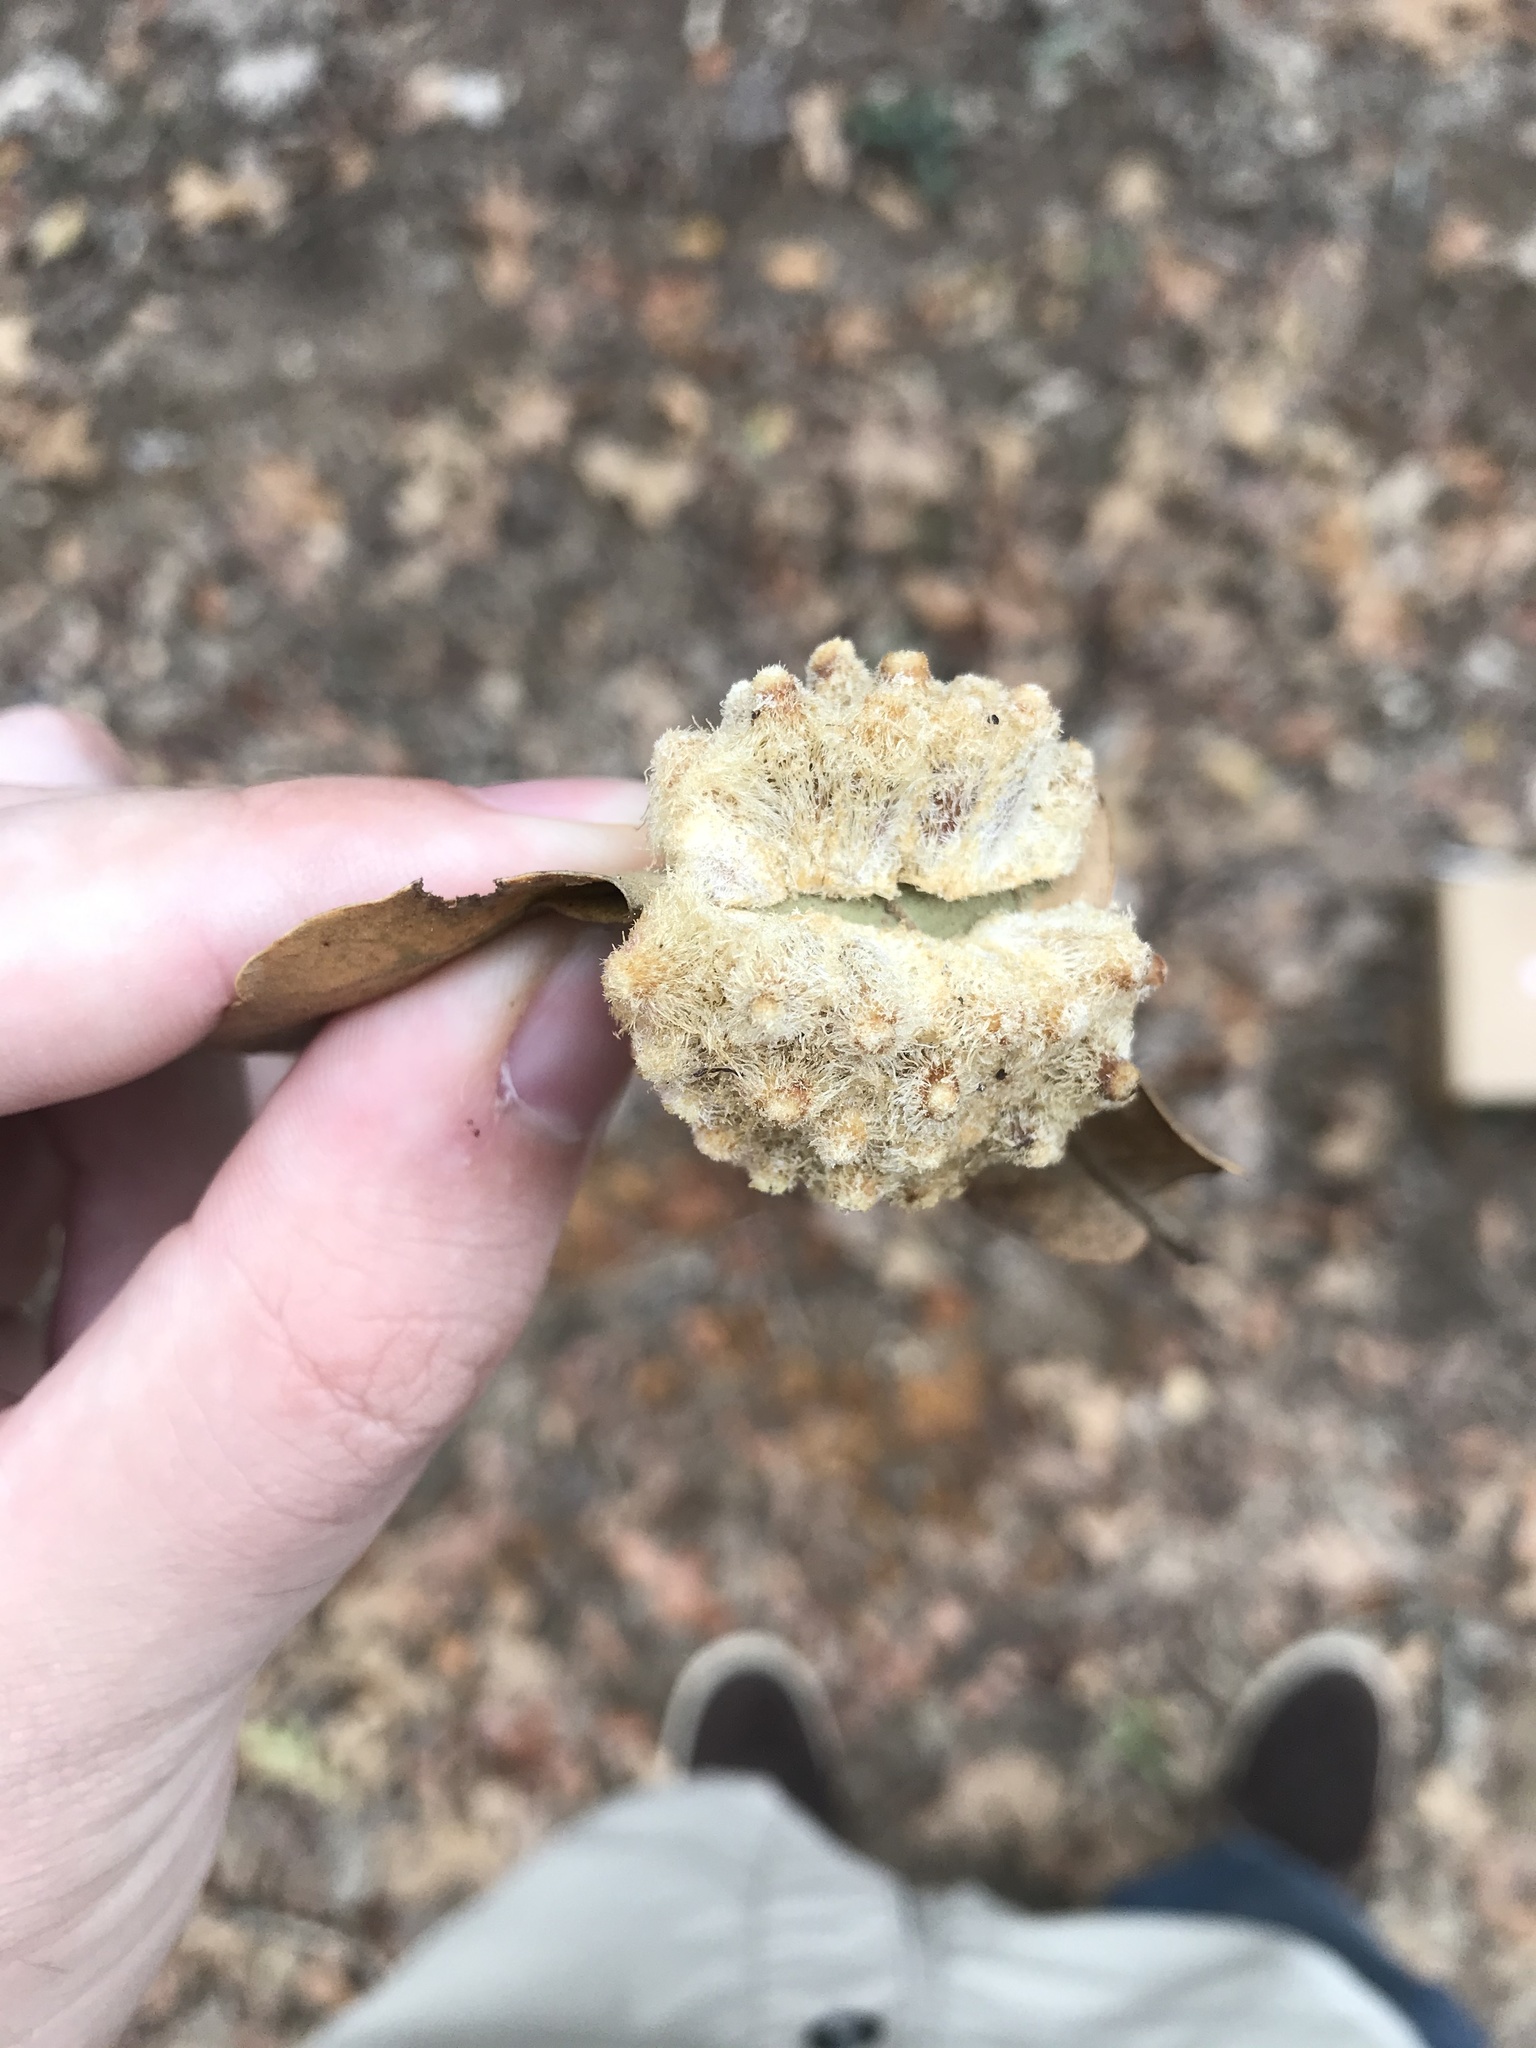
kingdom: Animalia
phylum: Arthropoda
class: Insecta
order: Hymenoptera
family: Cynipidae
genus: Andricus
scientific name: Andricus
